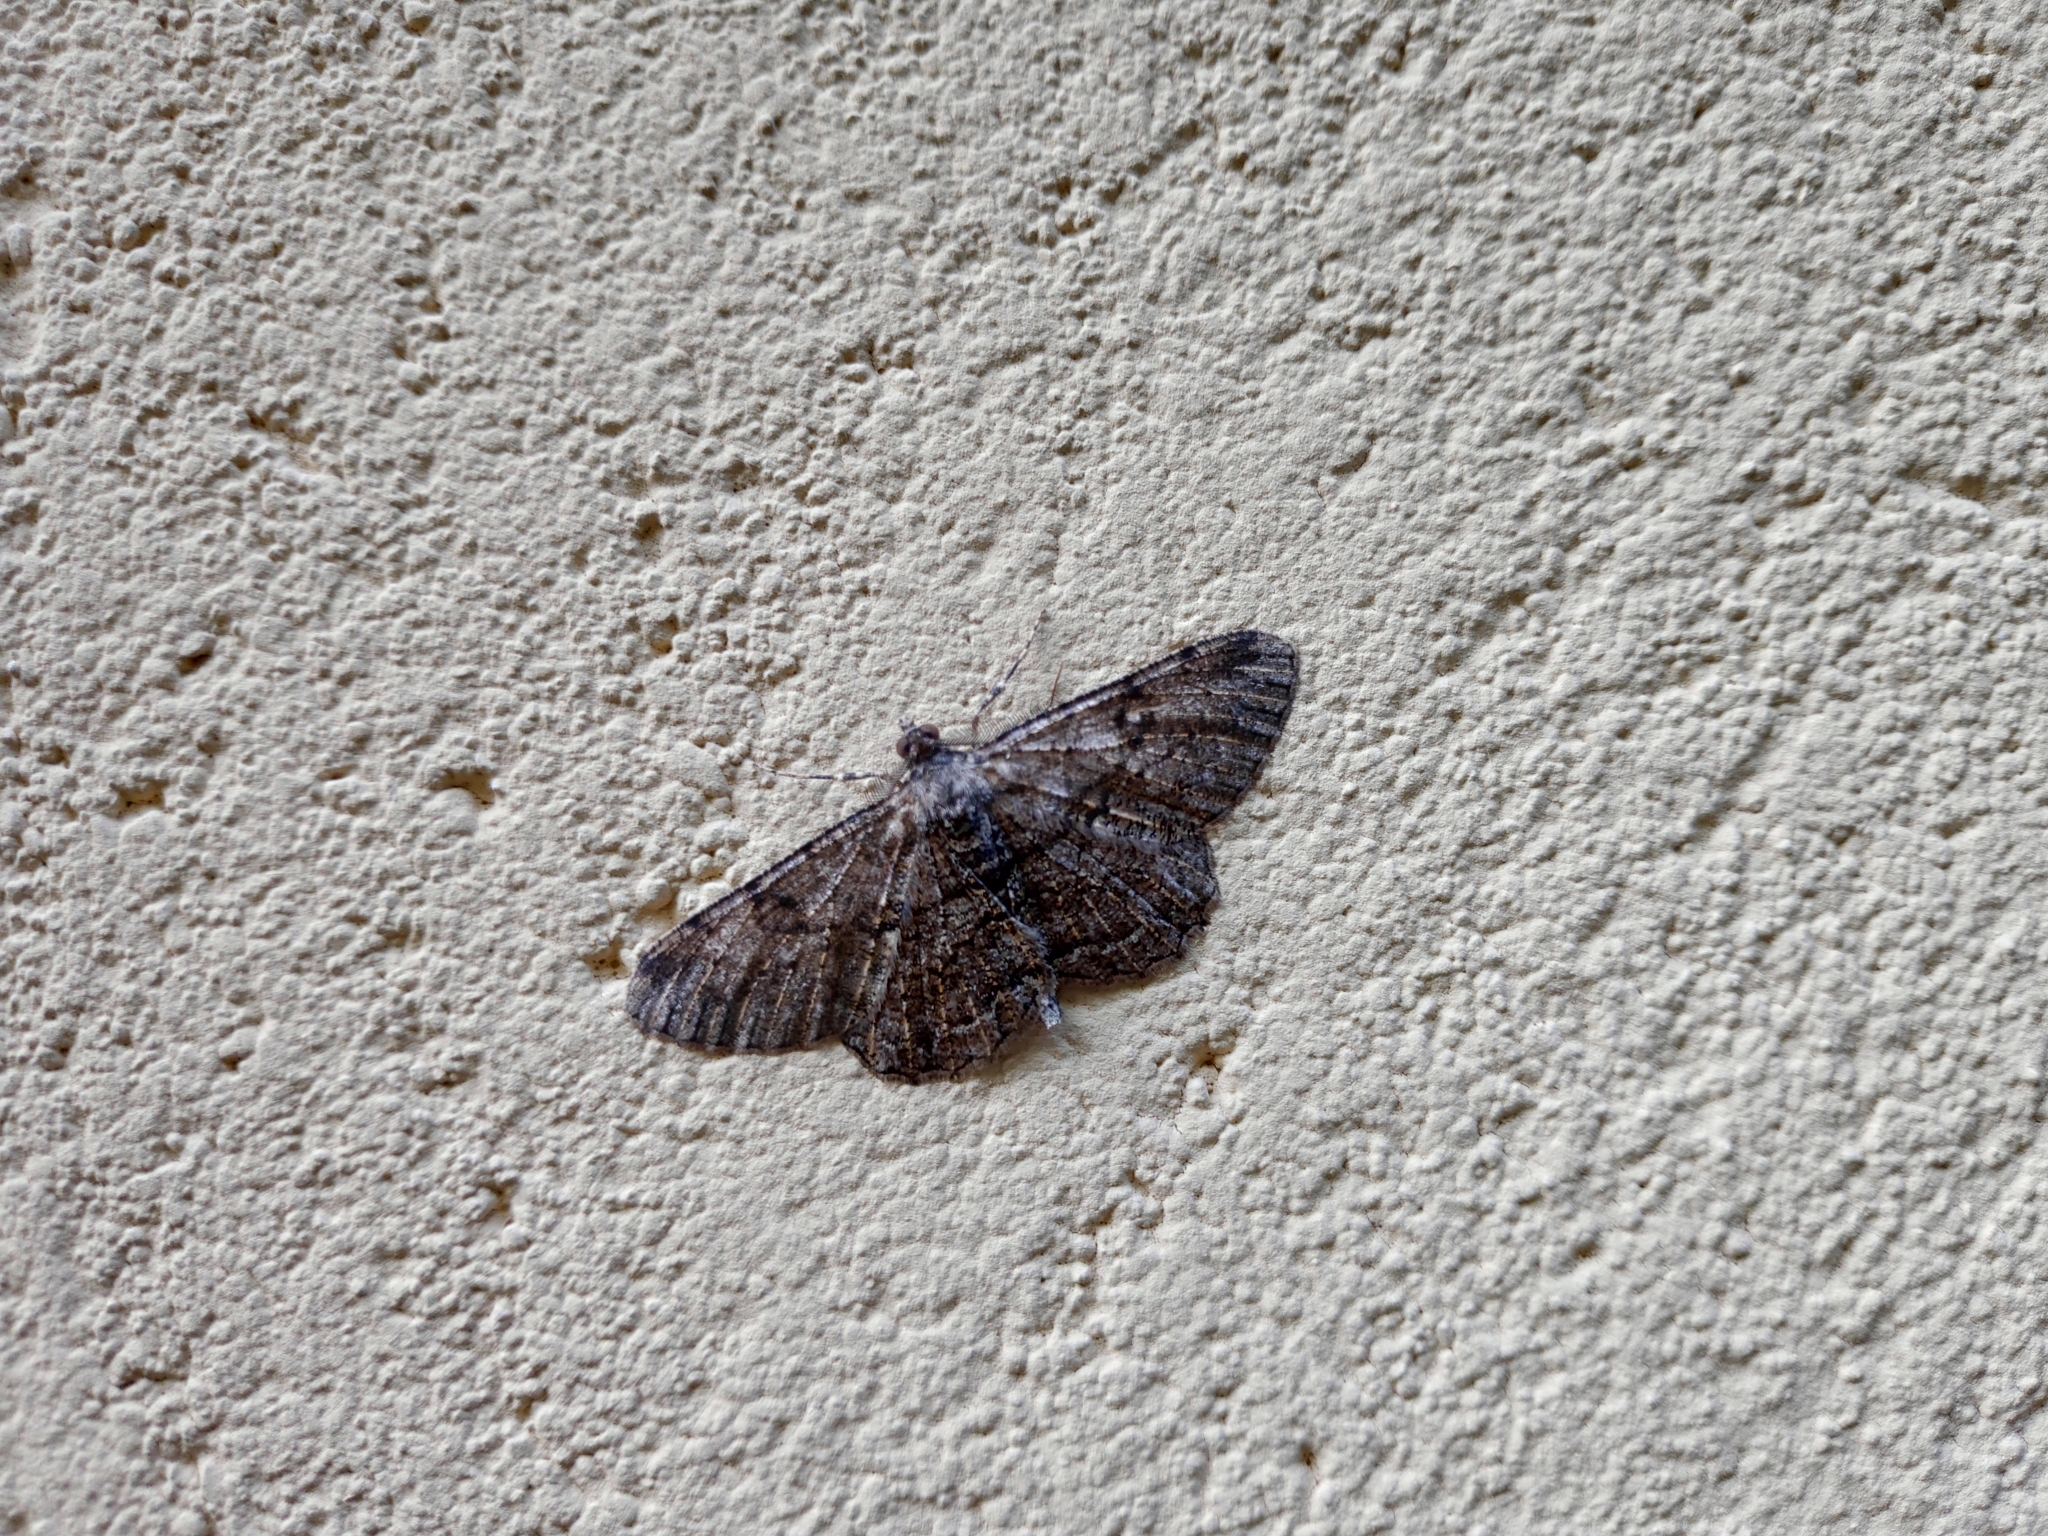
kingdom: Animalia
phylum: Arthropoda
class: Insecta
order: Lepidoptera
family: Geometridae
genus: Peribatodes
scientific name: Peribatodes rhomboidaria
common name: Willow beauty
